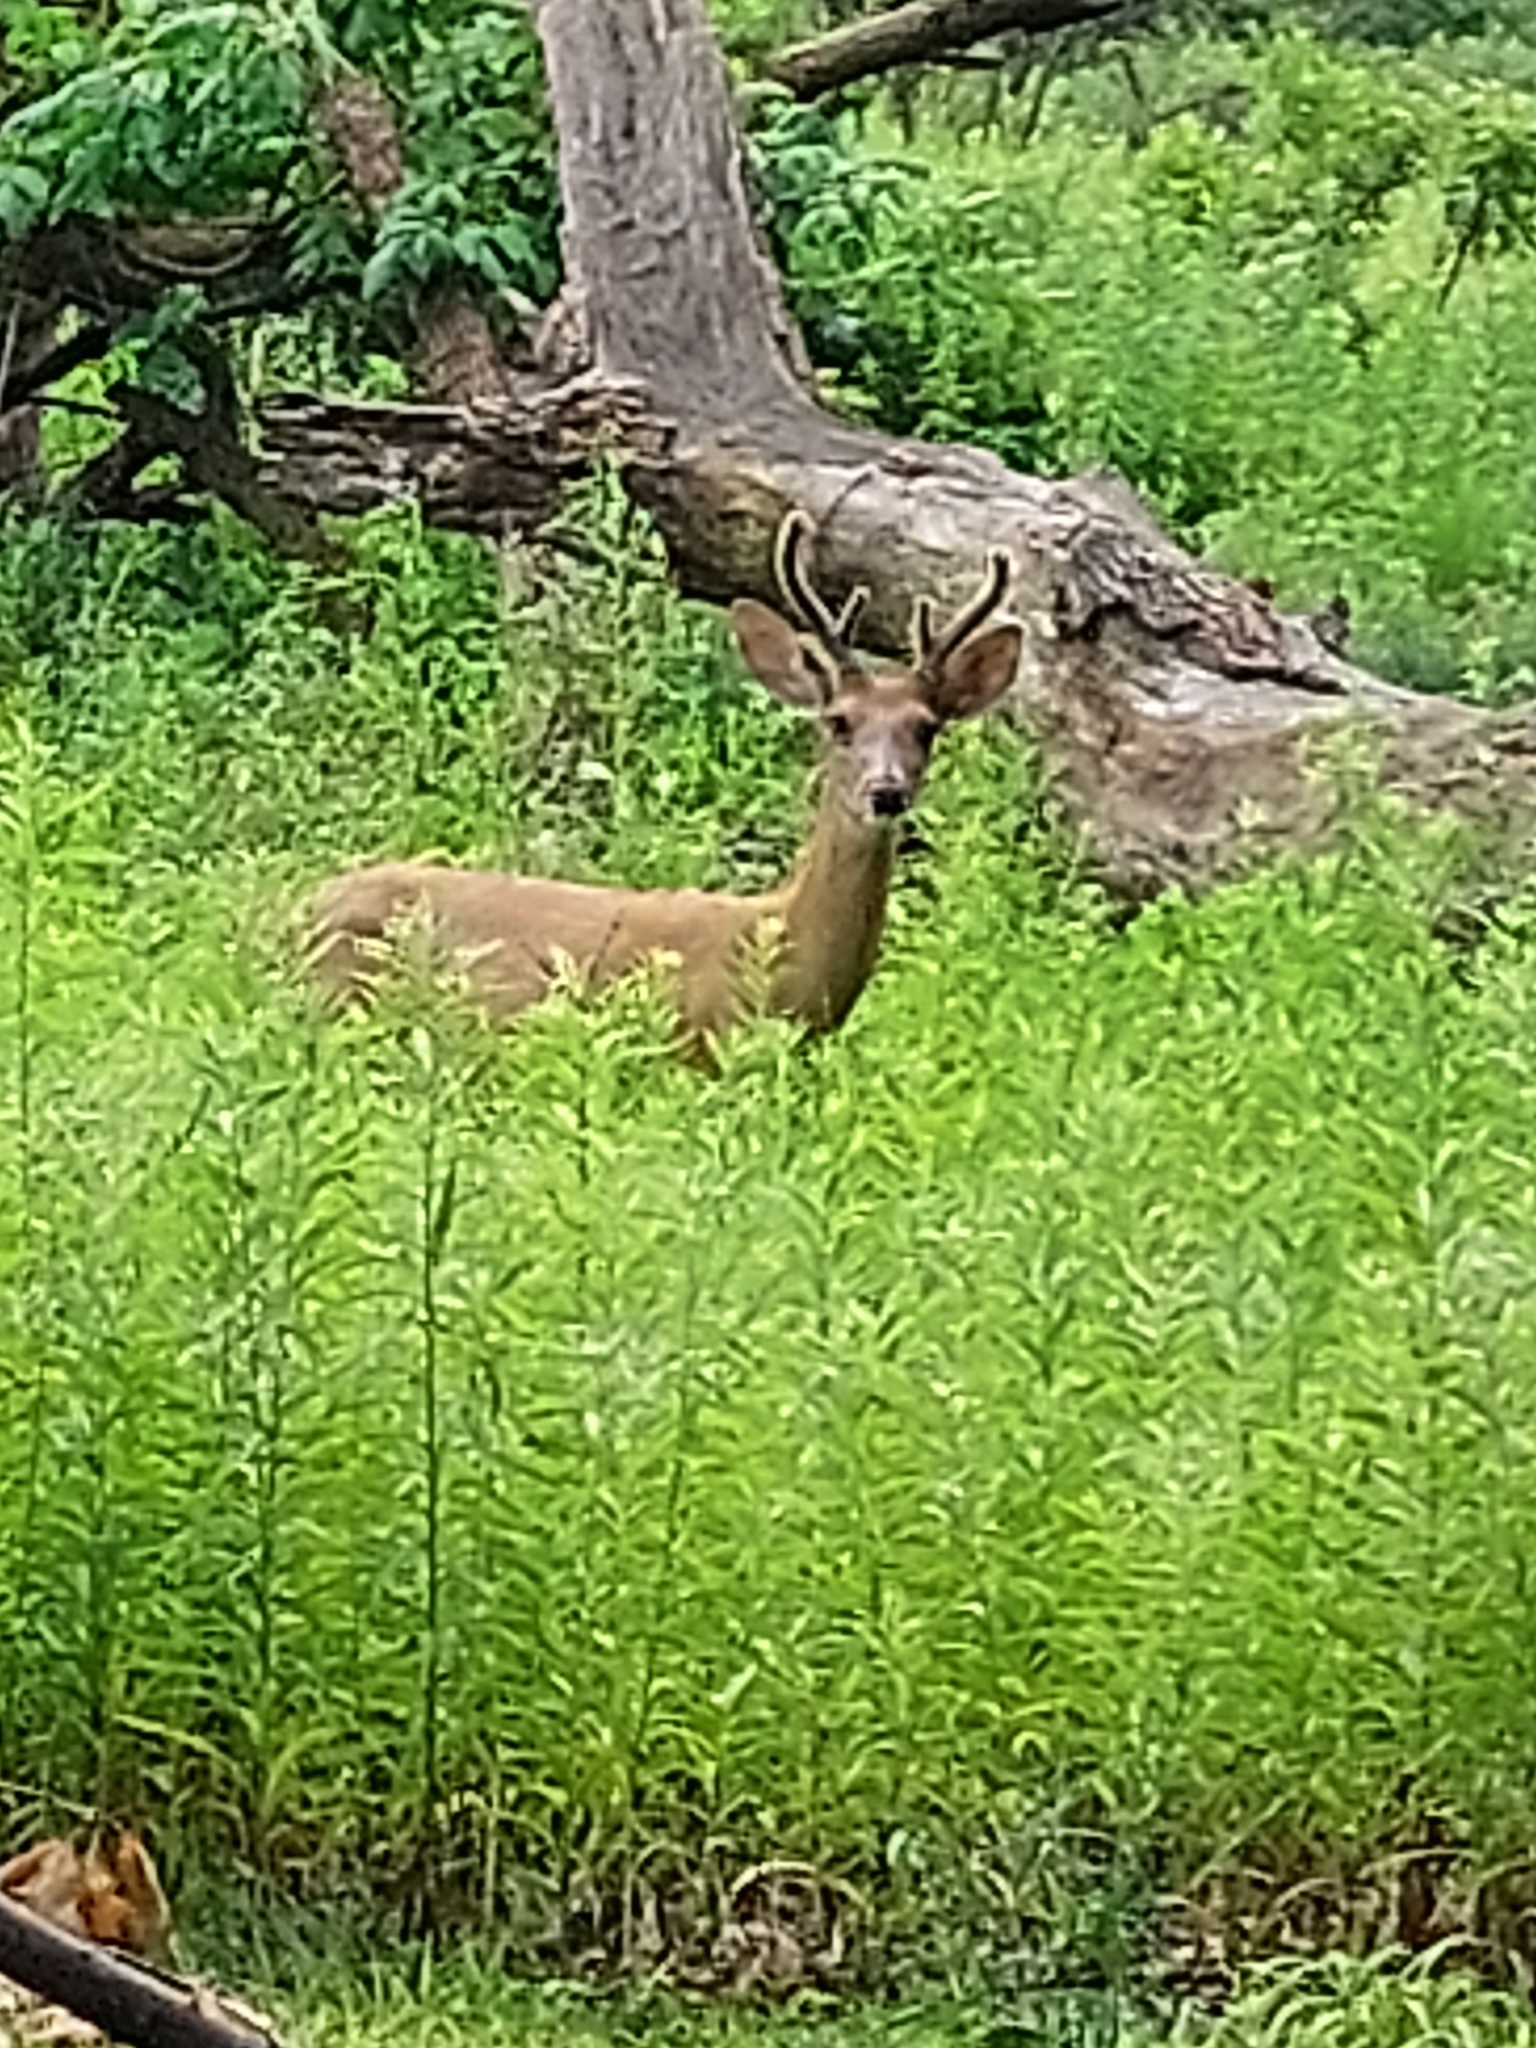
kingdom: Animalia
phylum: Chordata
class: Mammalia
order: Artiodactyla
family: Cervidae
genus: Odocoileus
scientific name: Odocoileus virginianus
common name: White-tailed deer
